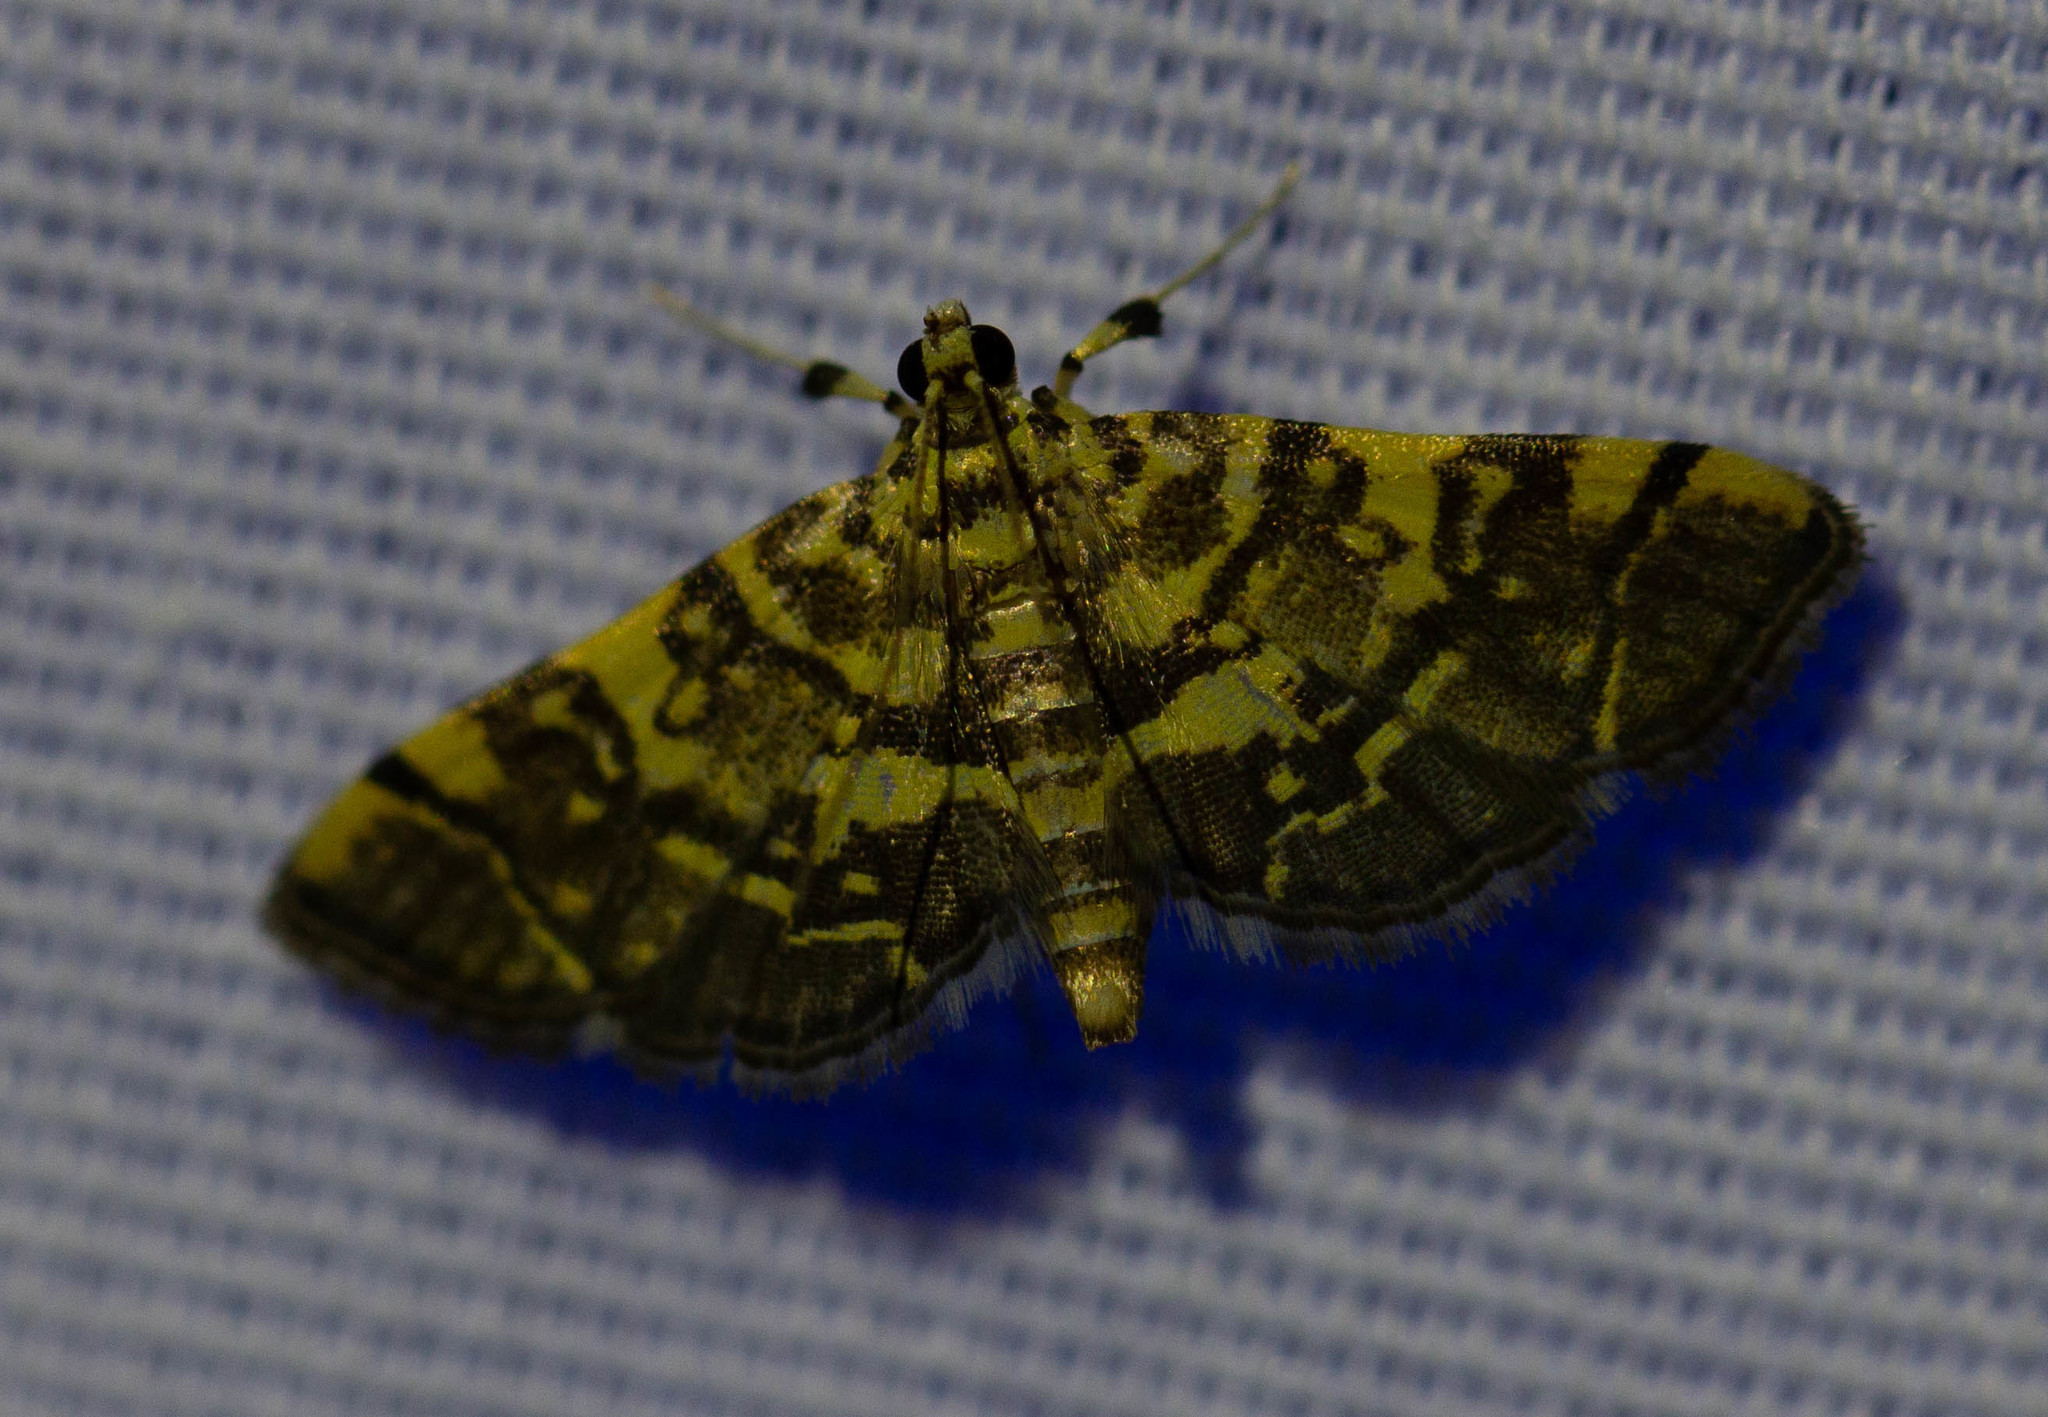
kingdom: Animalia
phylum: Arthropoda
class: Insecta
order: Lepidoptera
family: Crambidae
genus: Apogeshna
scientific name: Apogeshna stenialis
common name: Checkered apogeshna moth
